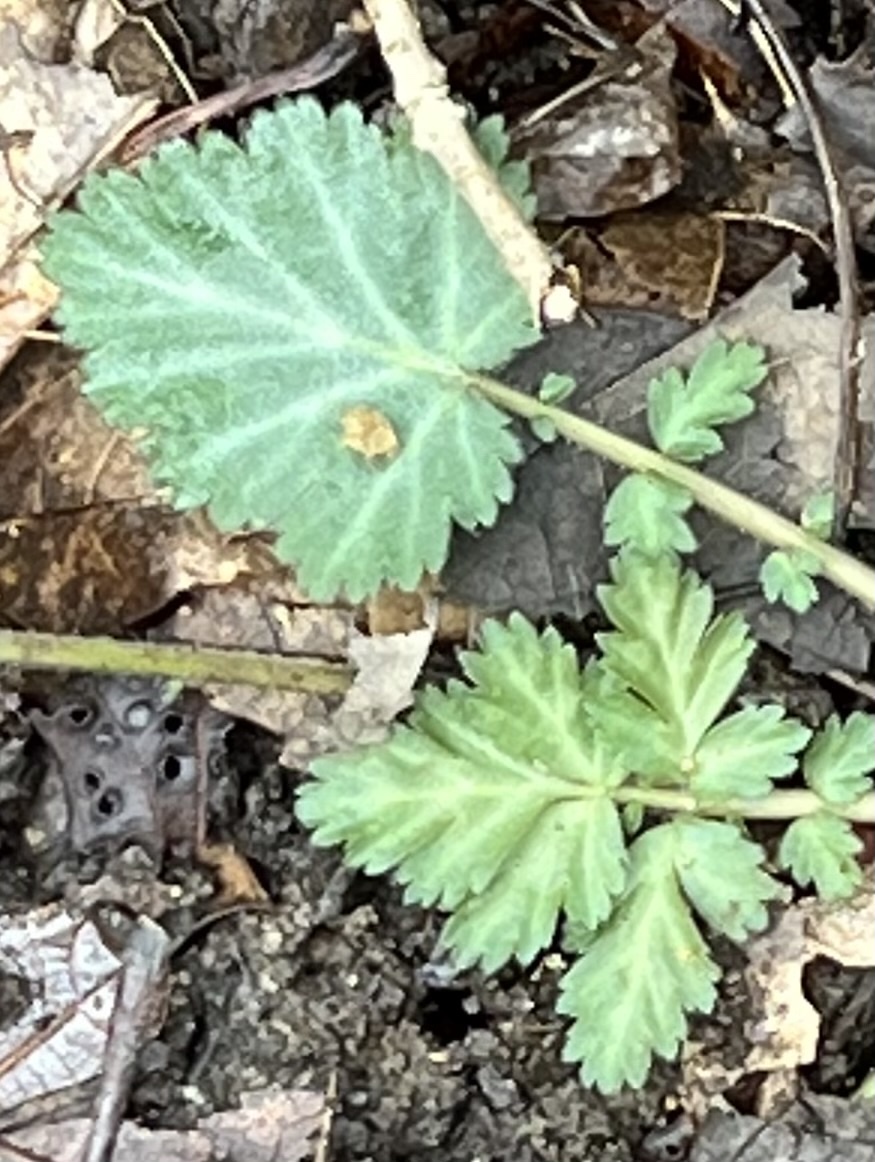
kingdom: Plantae
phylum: Tracheophyta
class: Magnoliopsida
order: Rosales
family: Rosaceae
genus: Geum
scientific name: Geum canadense
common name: White avens
